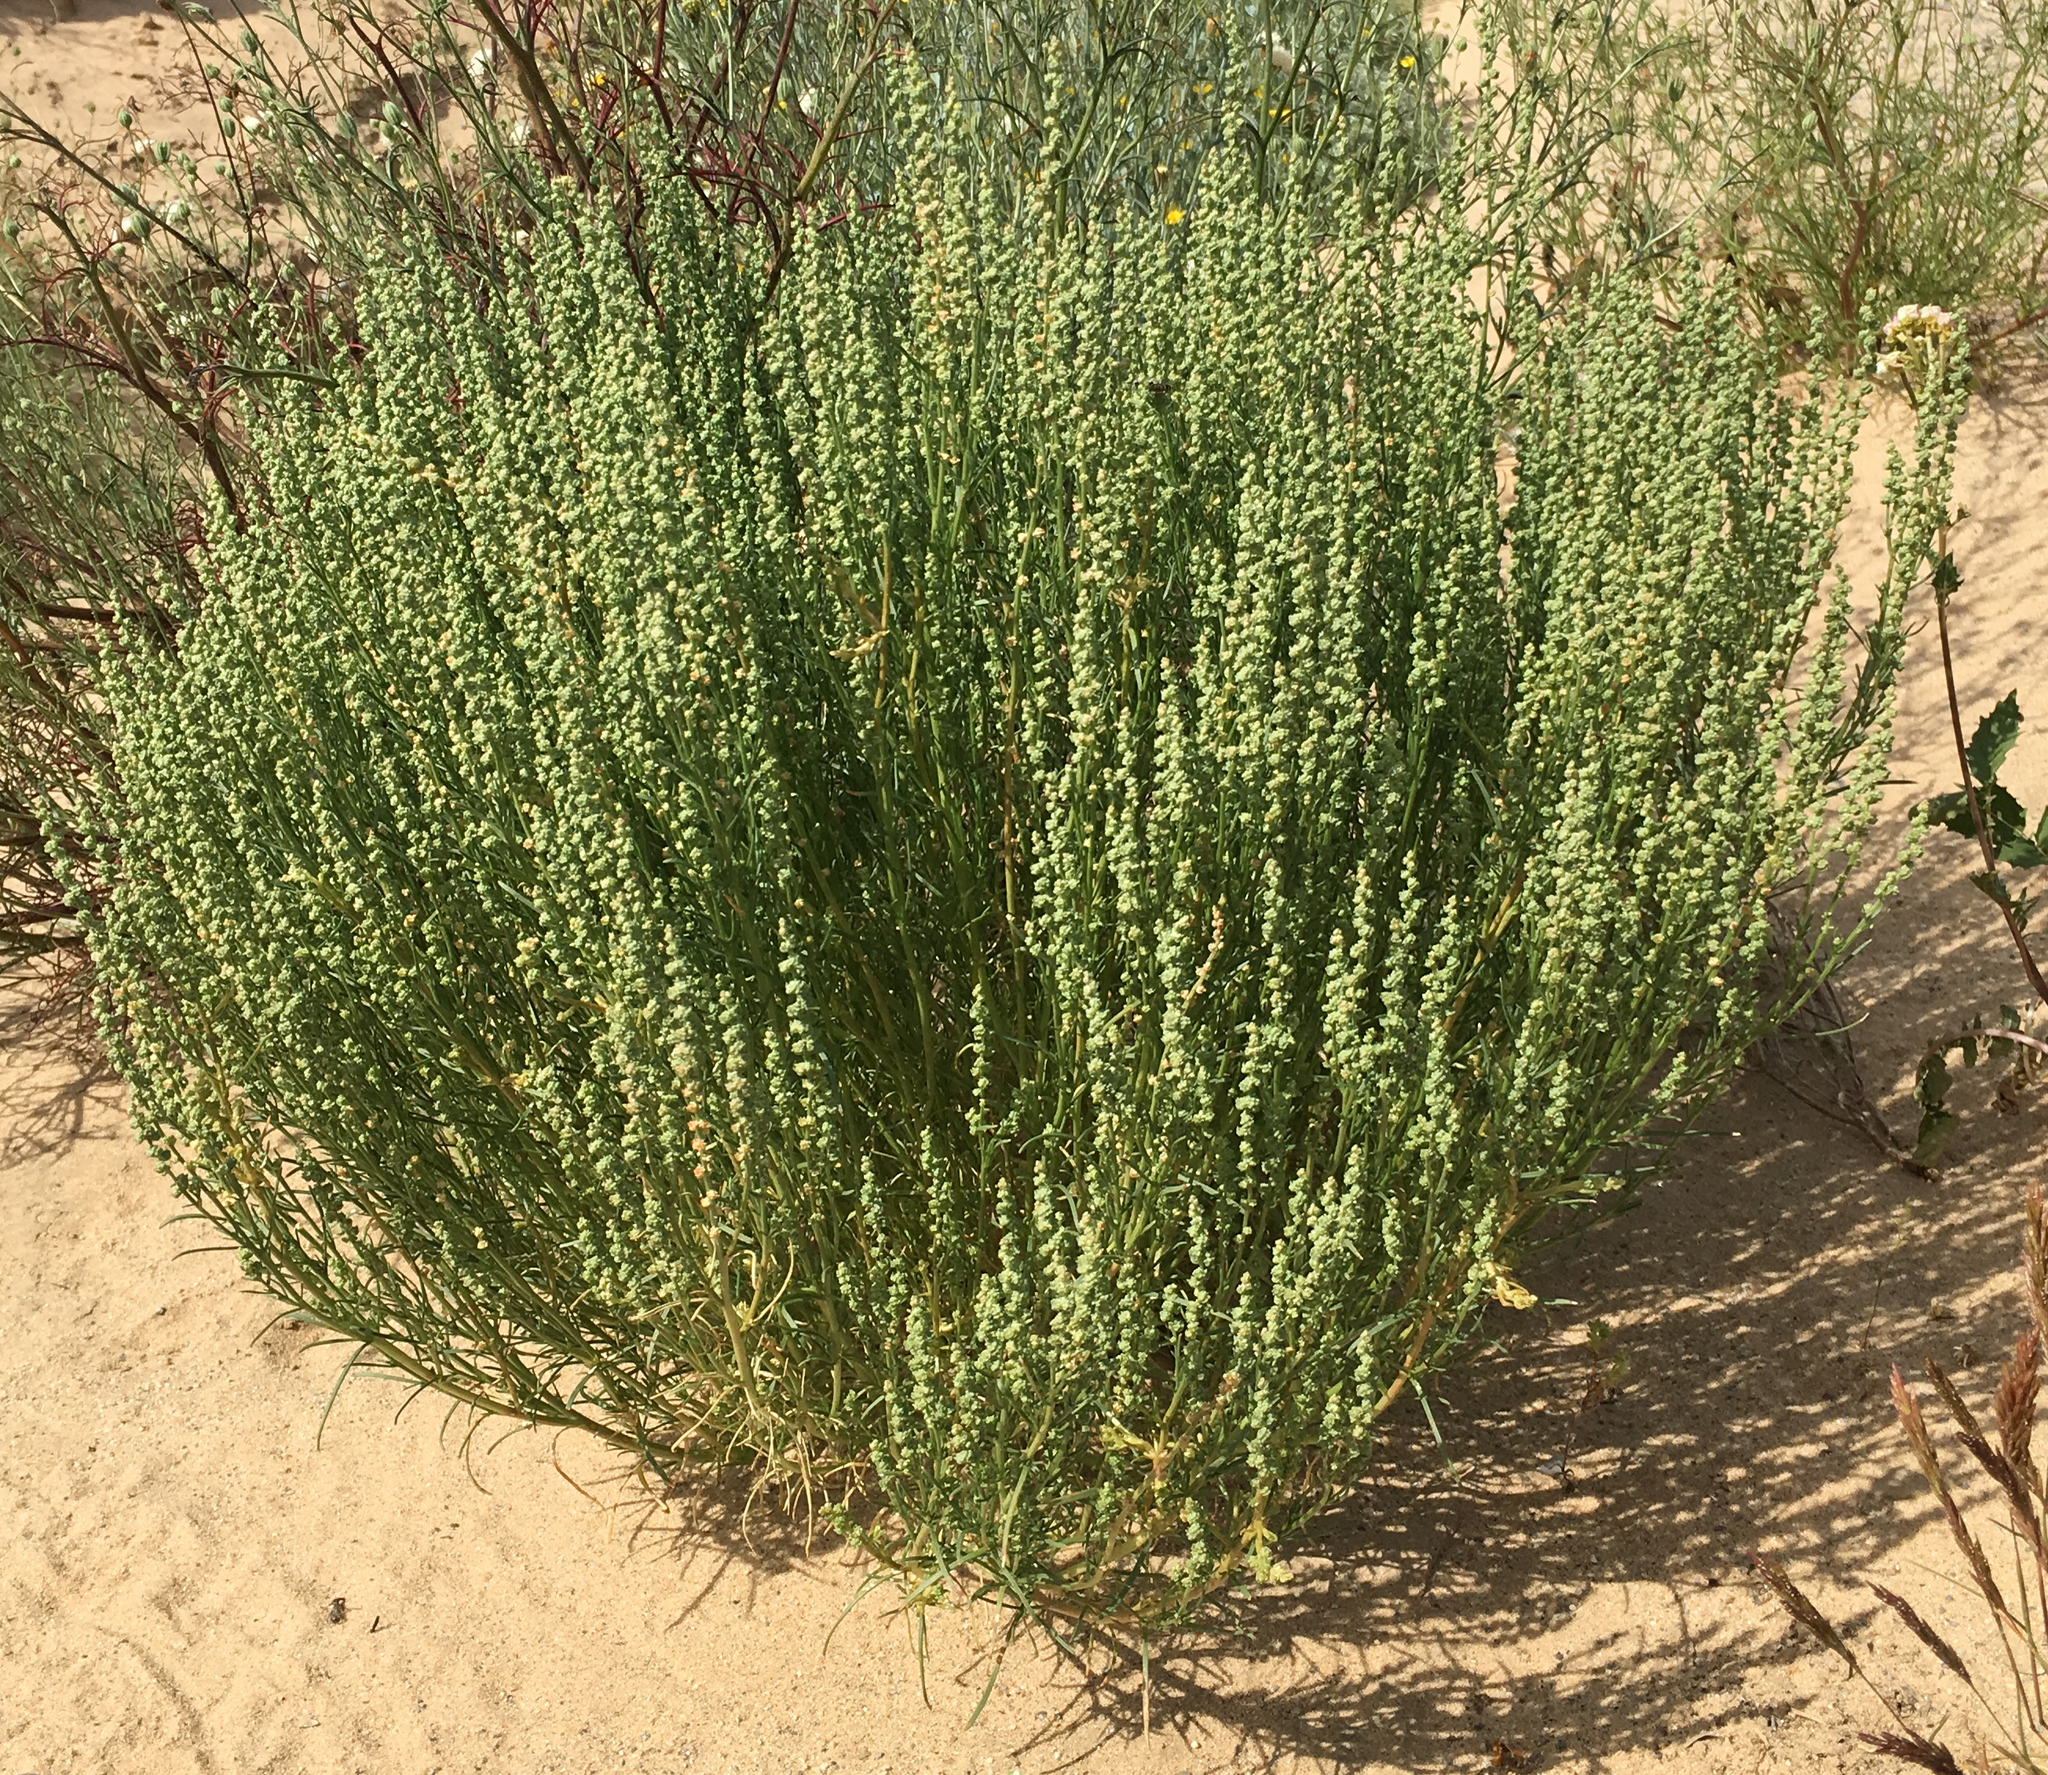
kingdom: Plantae
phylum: Tracheophyta
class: Magnoliopsida
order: Brassicales
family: Resedaceae
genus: Oligomeris
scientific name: Oligomeris linifolia
